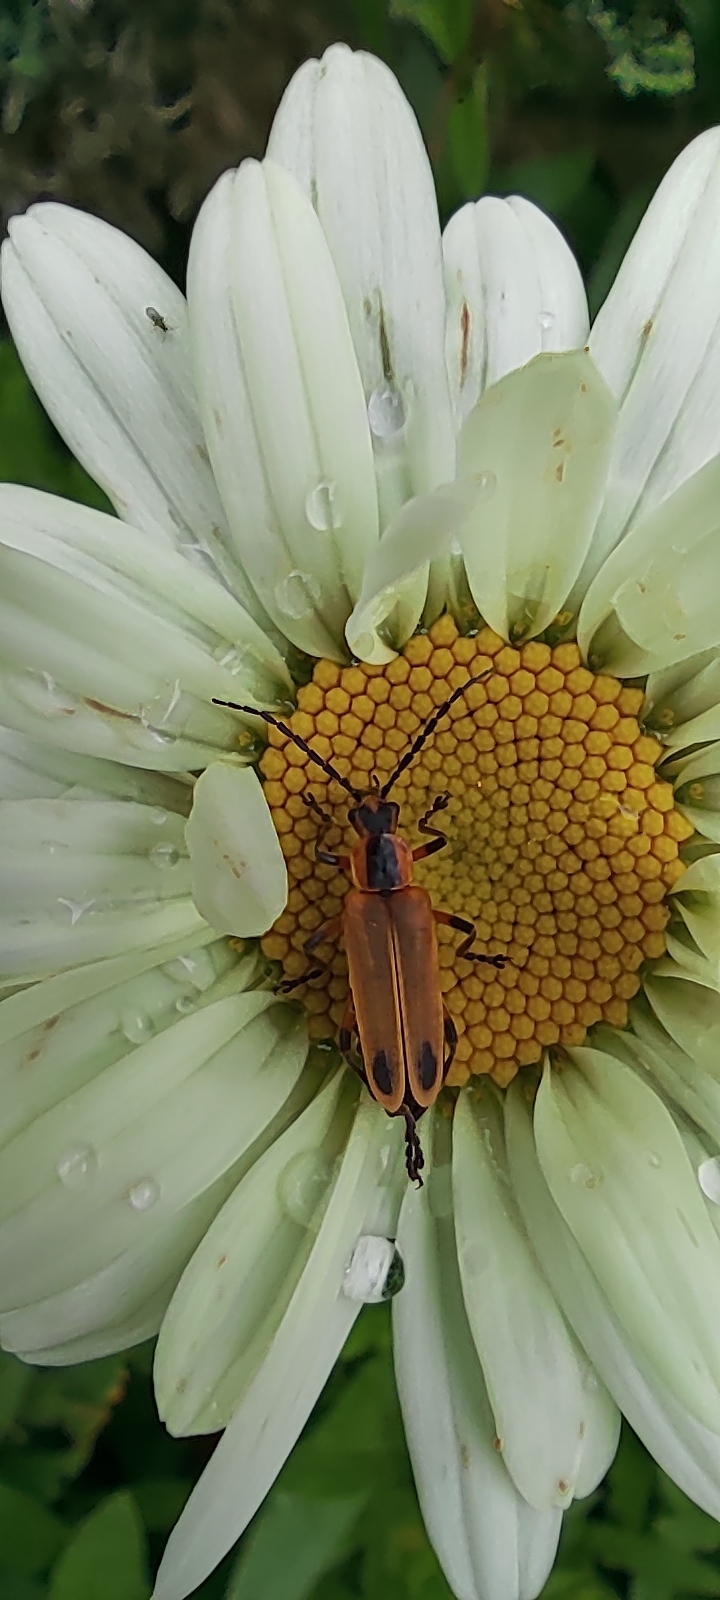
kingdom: Animalia
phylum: Arthropoda
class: Insecta
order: Coleoptera
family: Cantharidae
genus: Chauliognathus
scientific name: Chauliognathus marginatus
